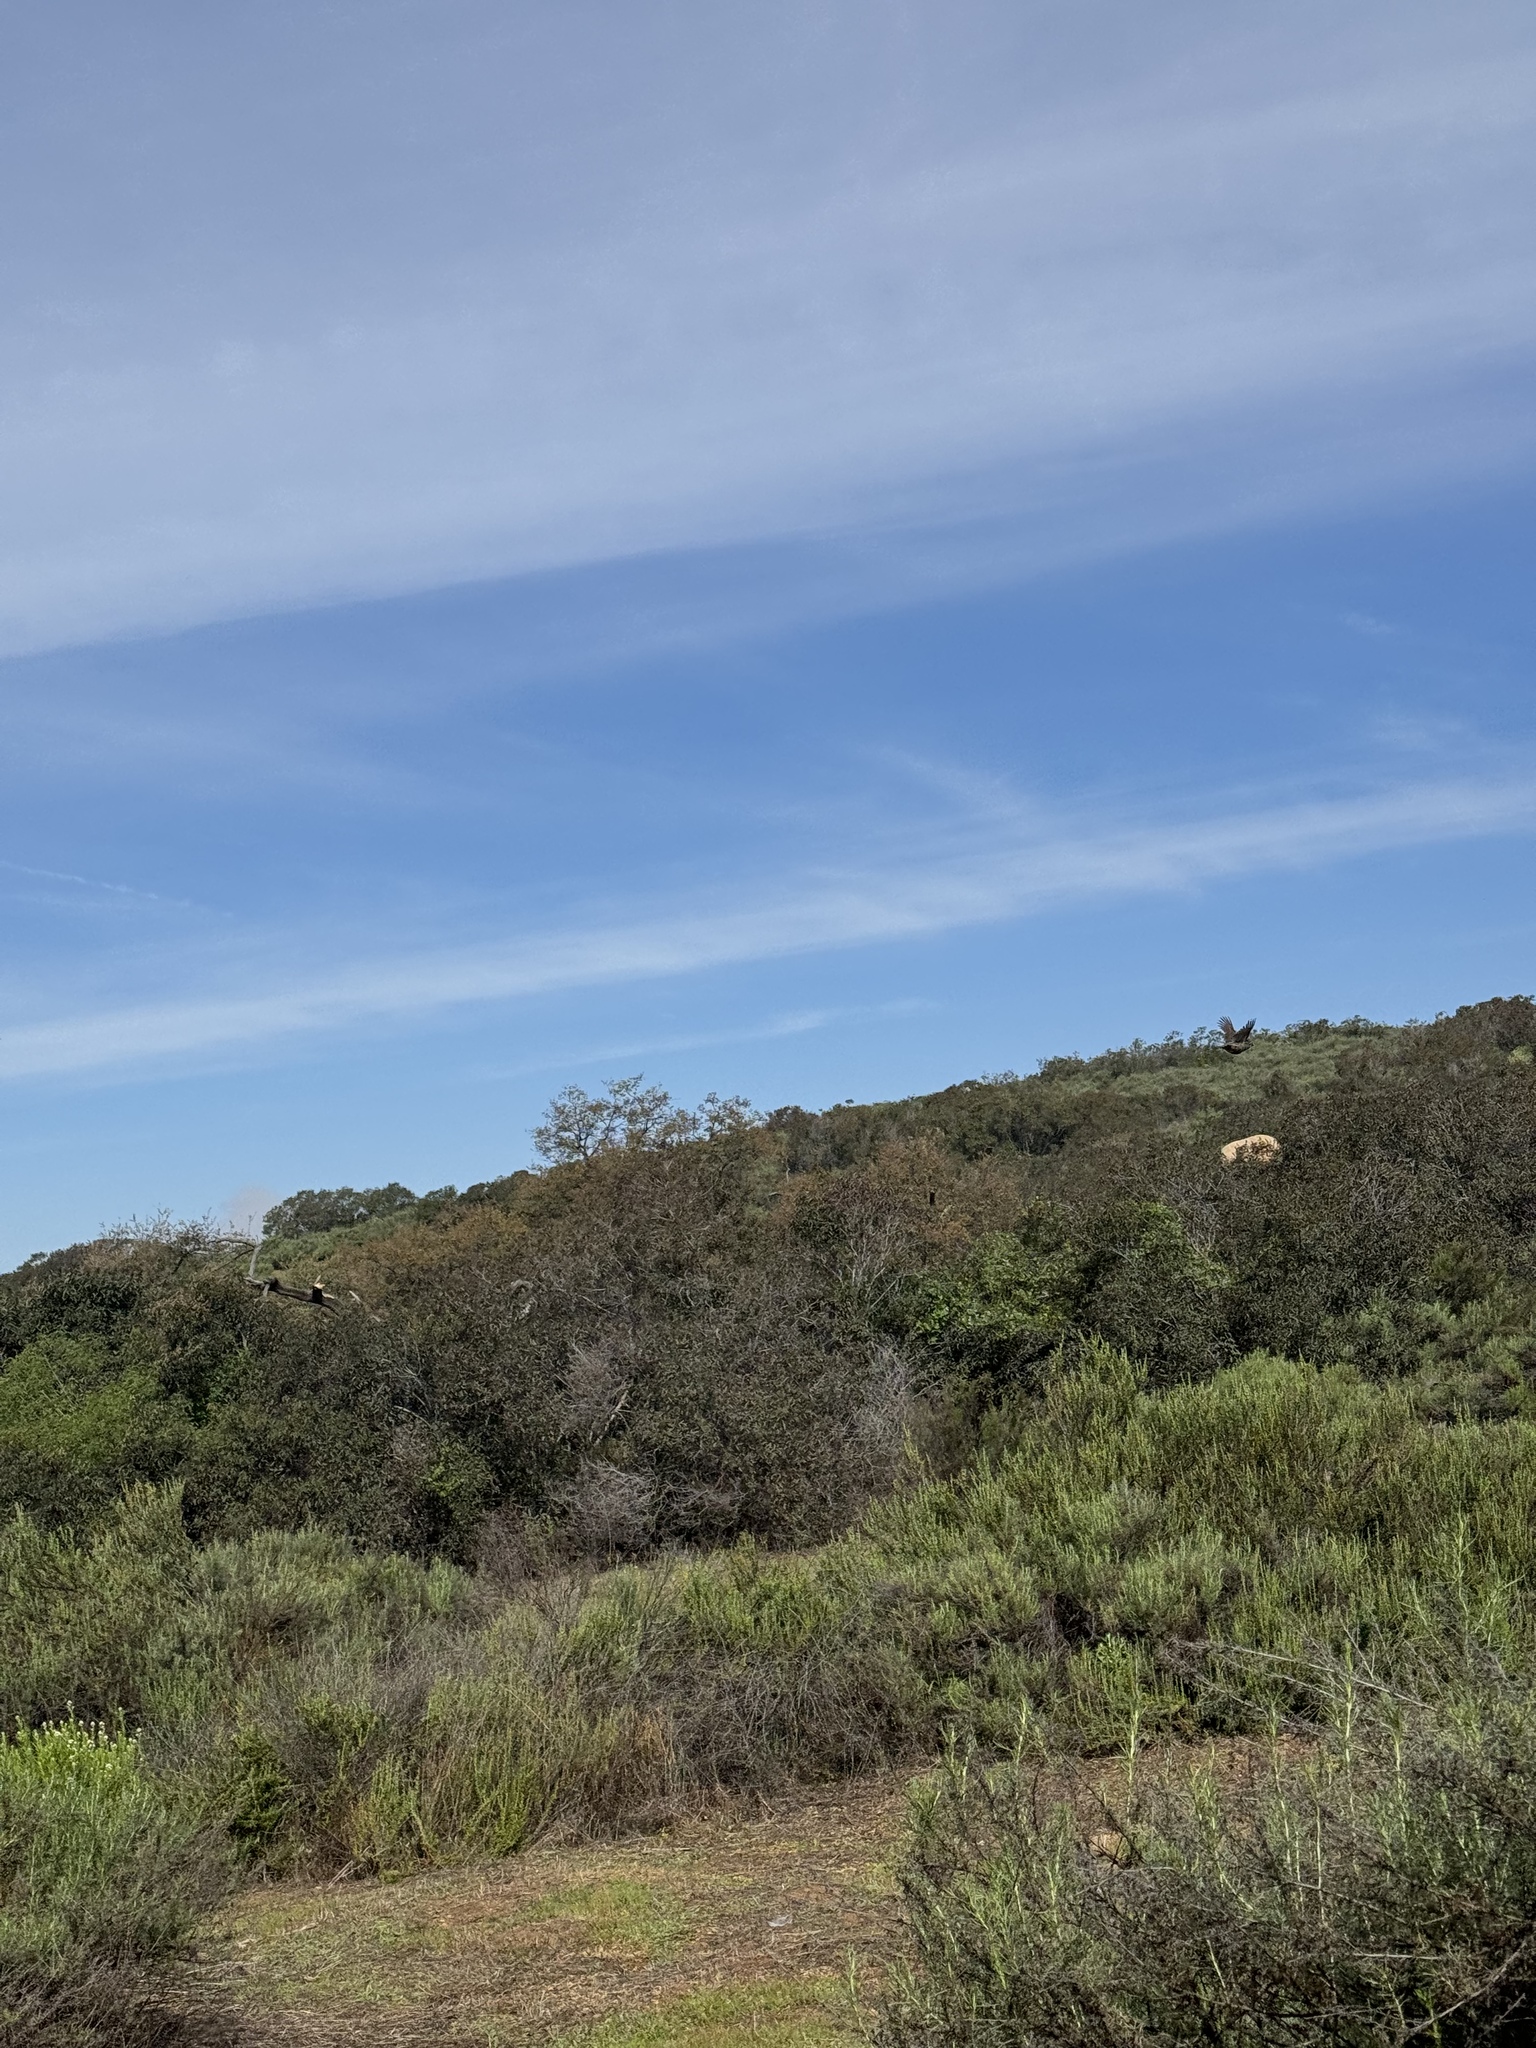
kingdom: Animalia
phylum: Chordata
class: Aves
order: Galliformes
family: Odontophoridae
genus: Callipepla
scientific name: Callipepla californica
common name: California quail
